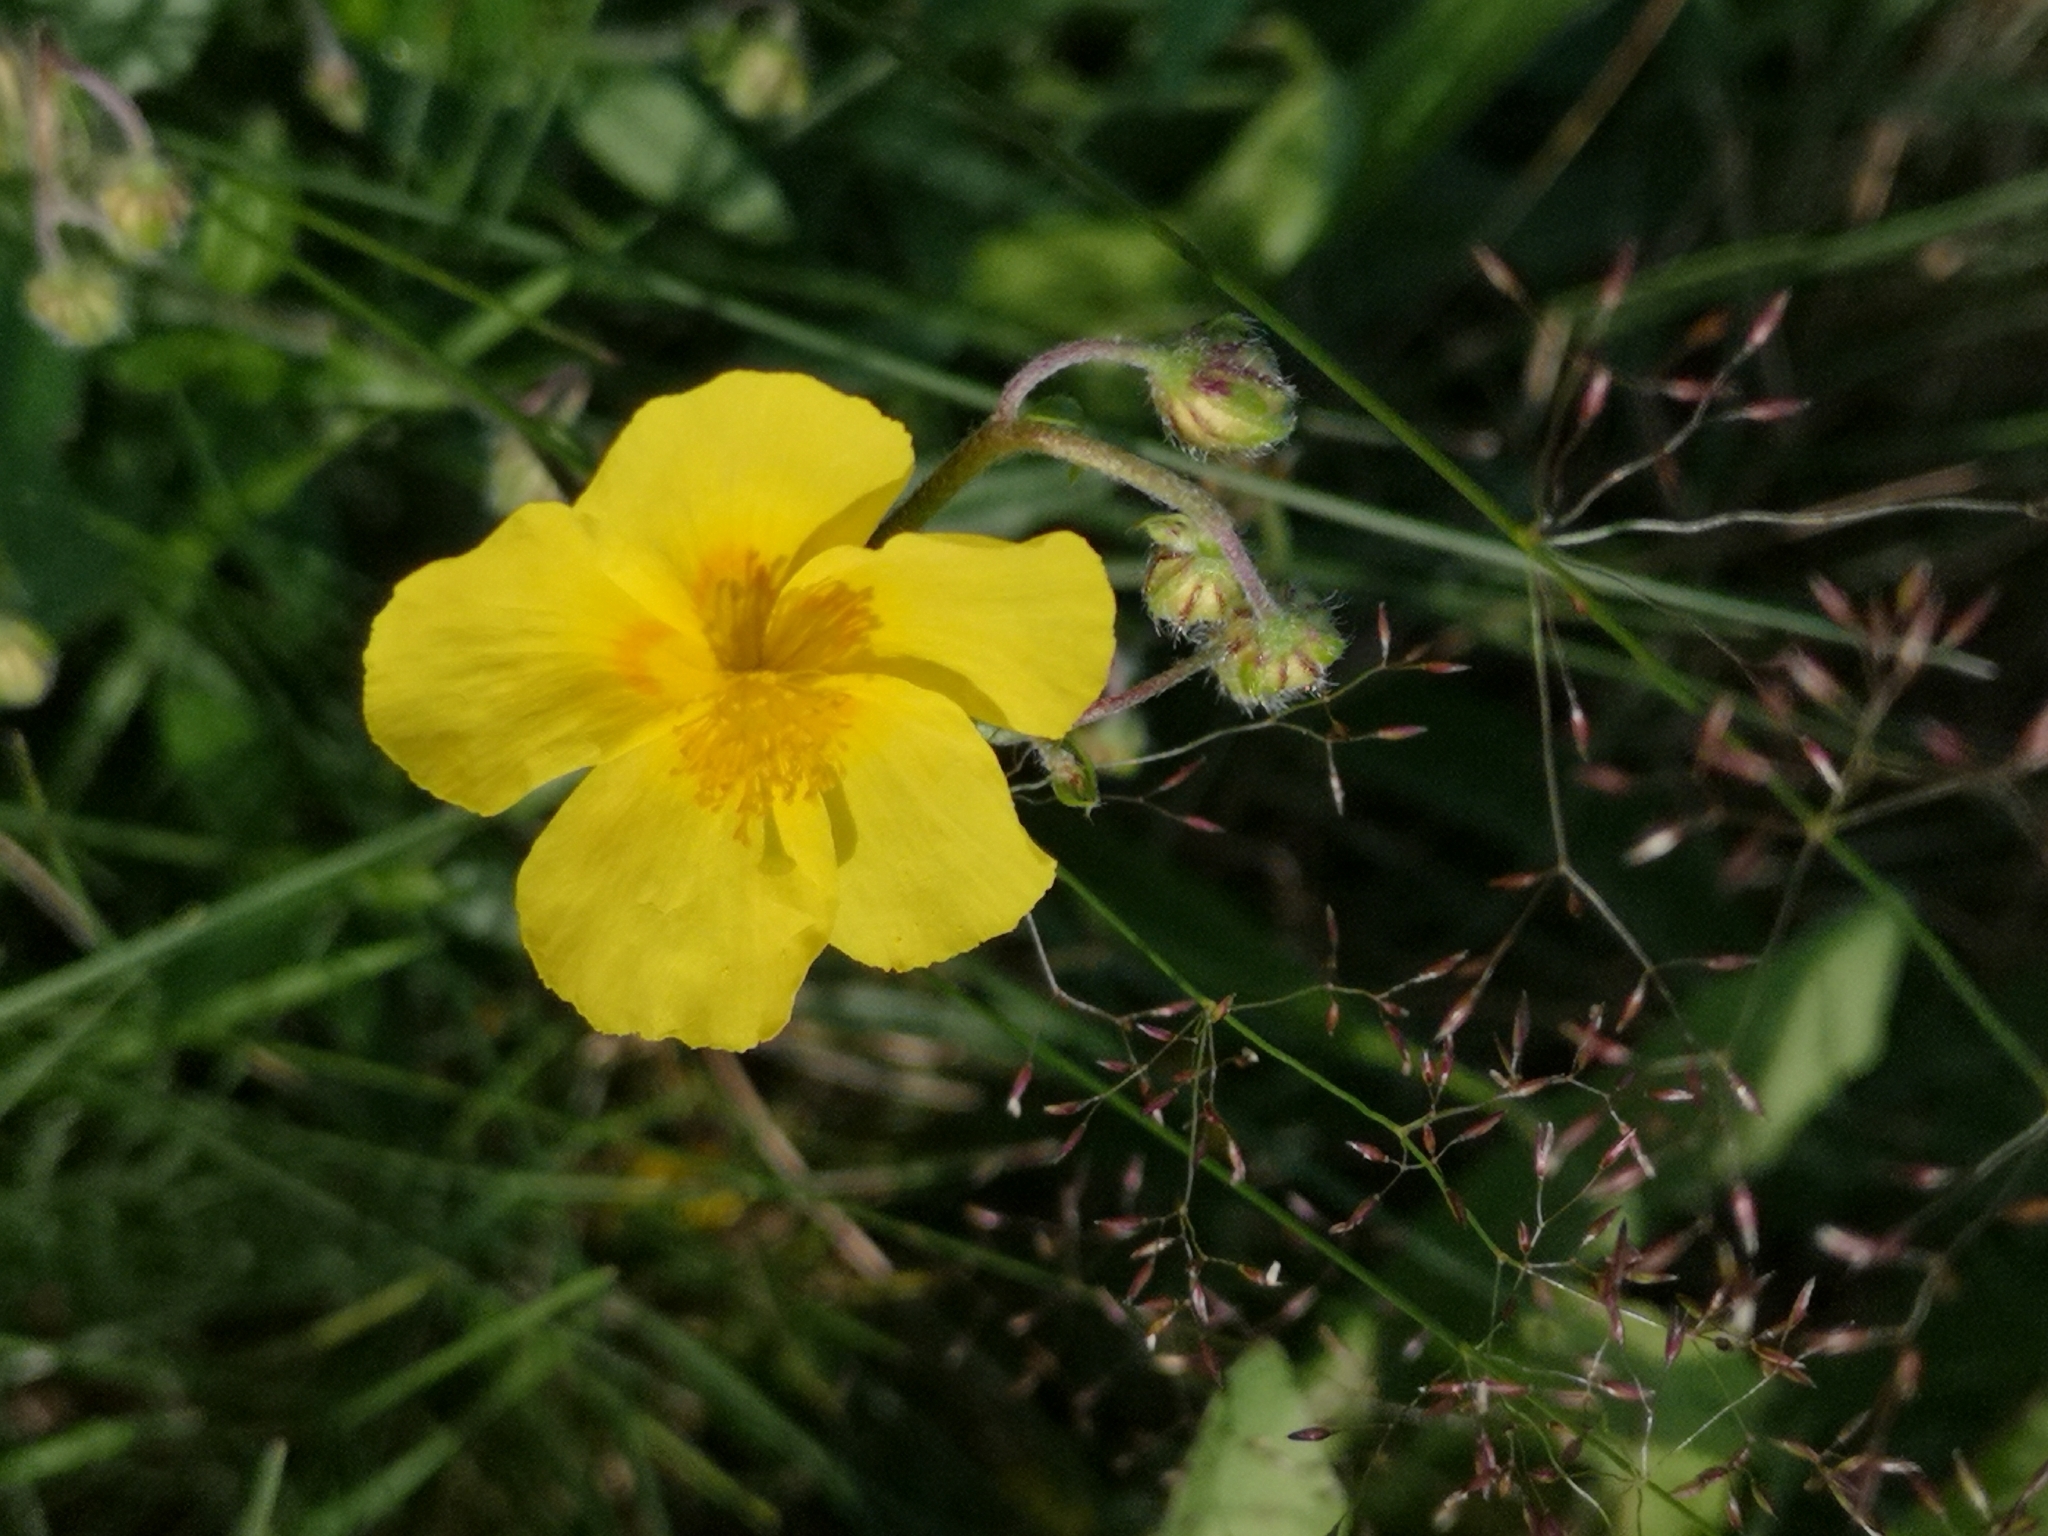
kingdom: Plantae
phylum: Tracheophyta
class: Magnoliopsida
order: Malvales
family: Cistaceae
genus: Helianthemum
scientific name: Helianthemum nummularium
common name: Common rock-rose
